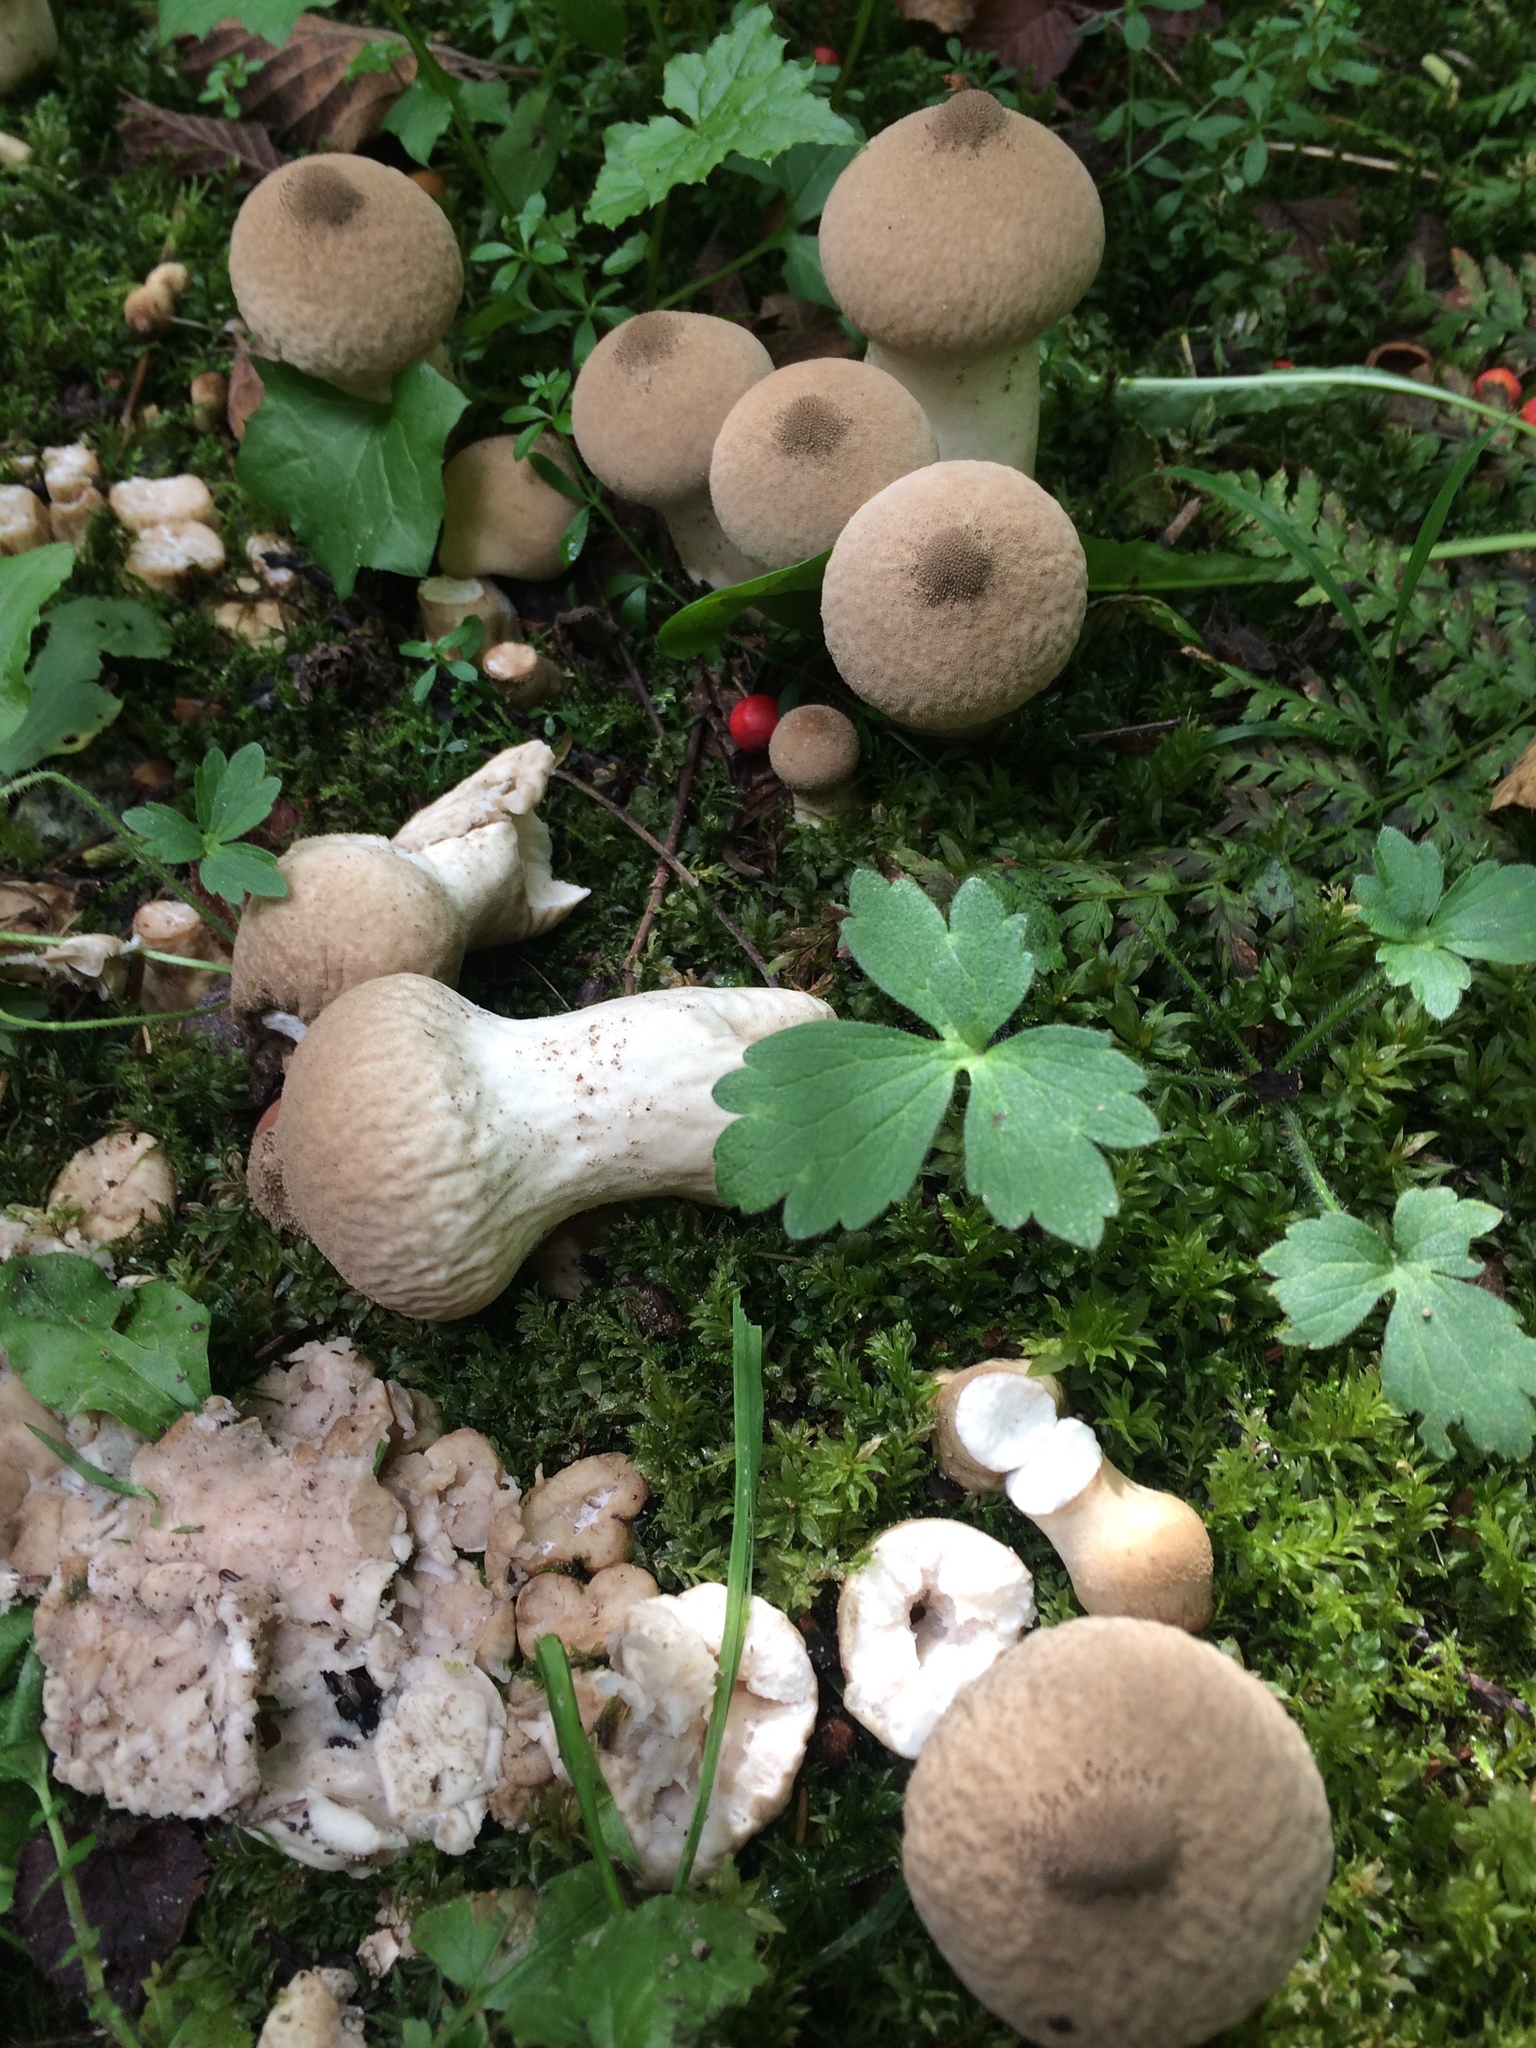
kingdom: Fungi
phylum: Basidiomycota
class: Agaricomycetes
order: Agaricales
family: Lycoperdaceae
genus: Lycoperdon
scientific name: Lycoperdon perlatum
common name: Common puffball
